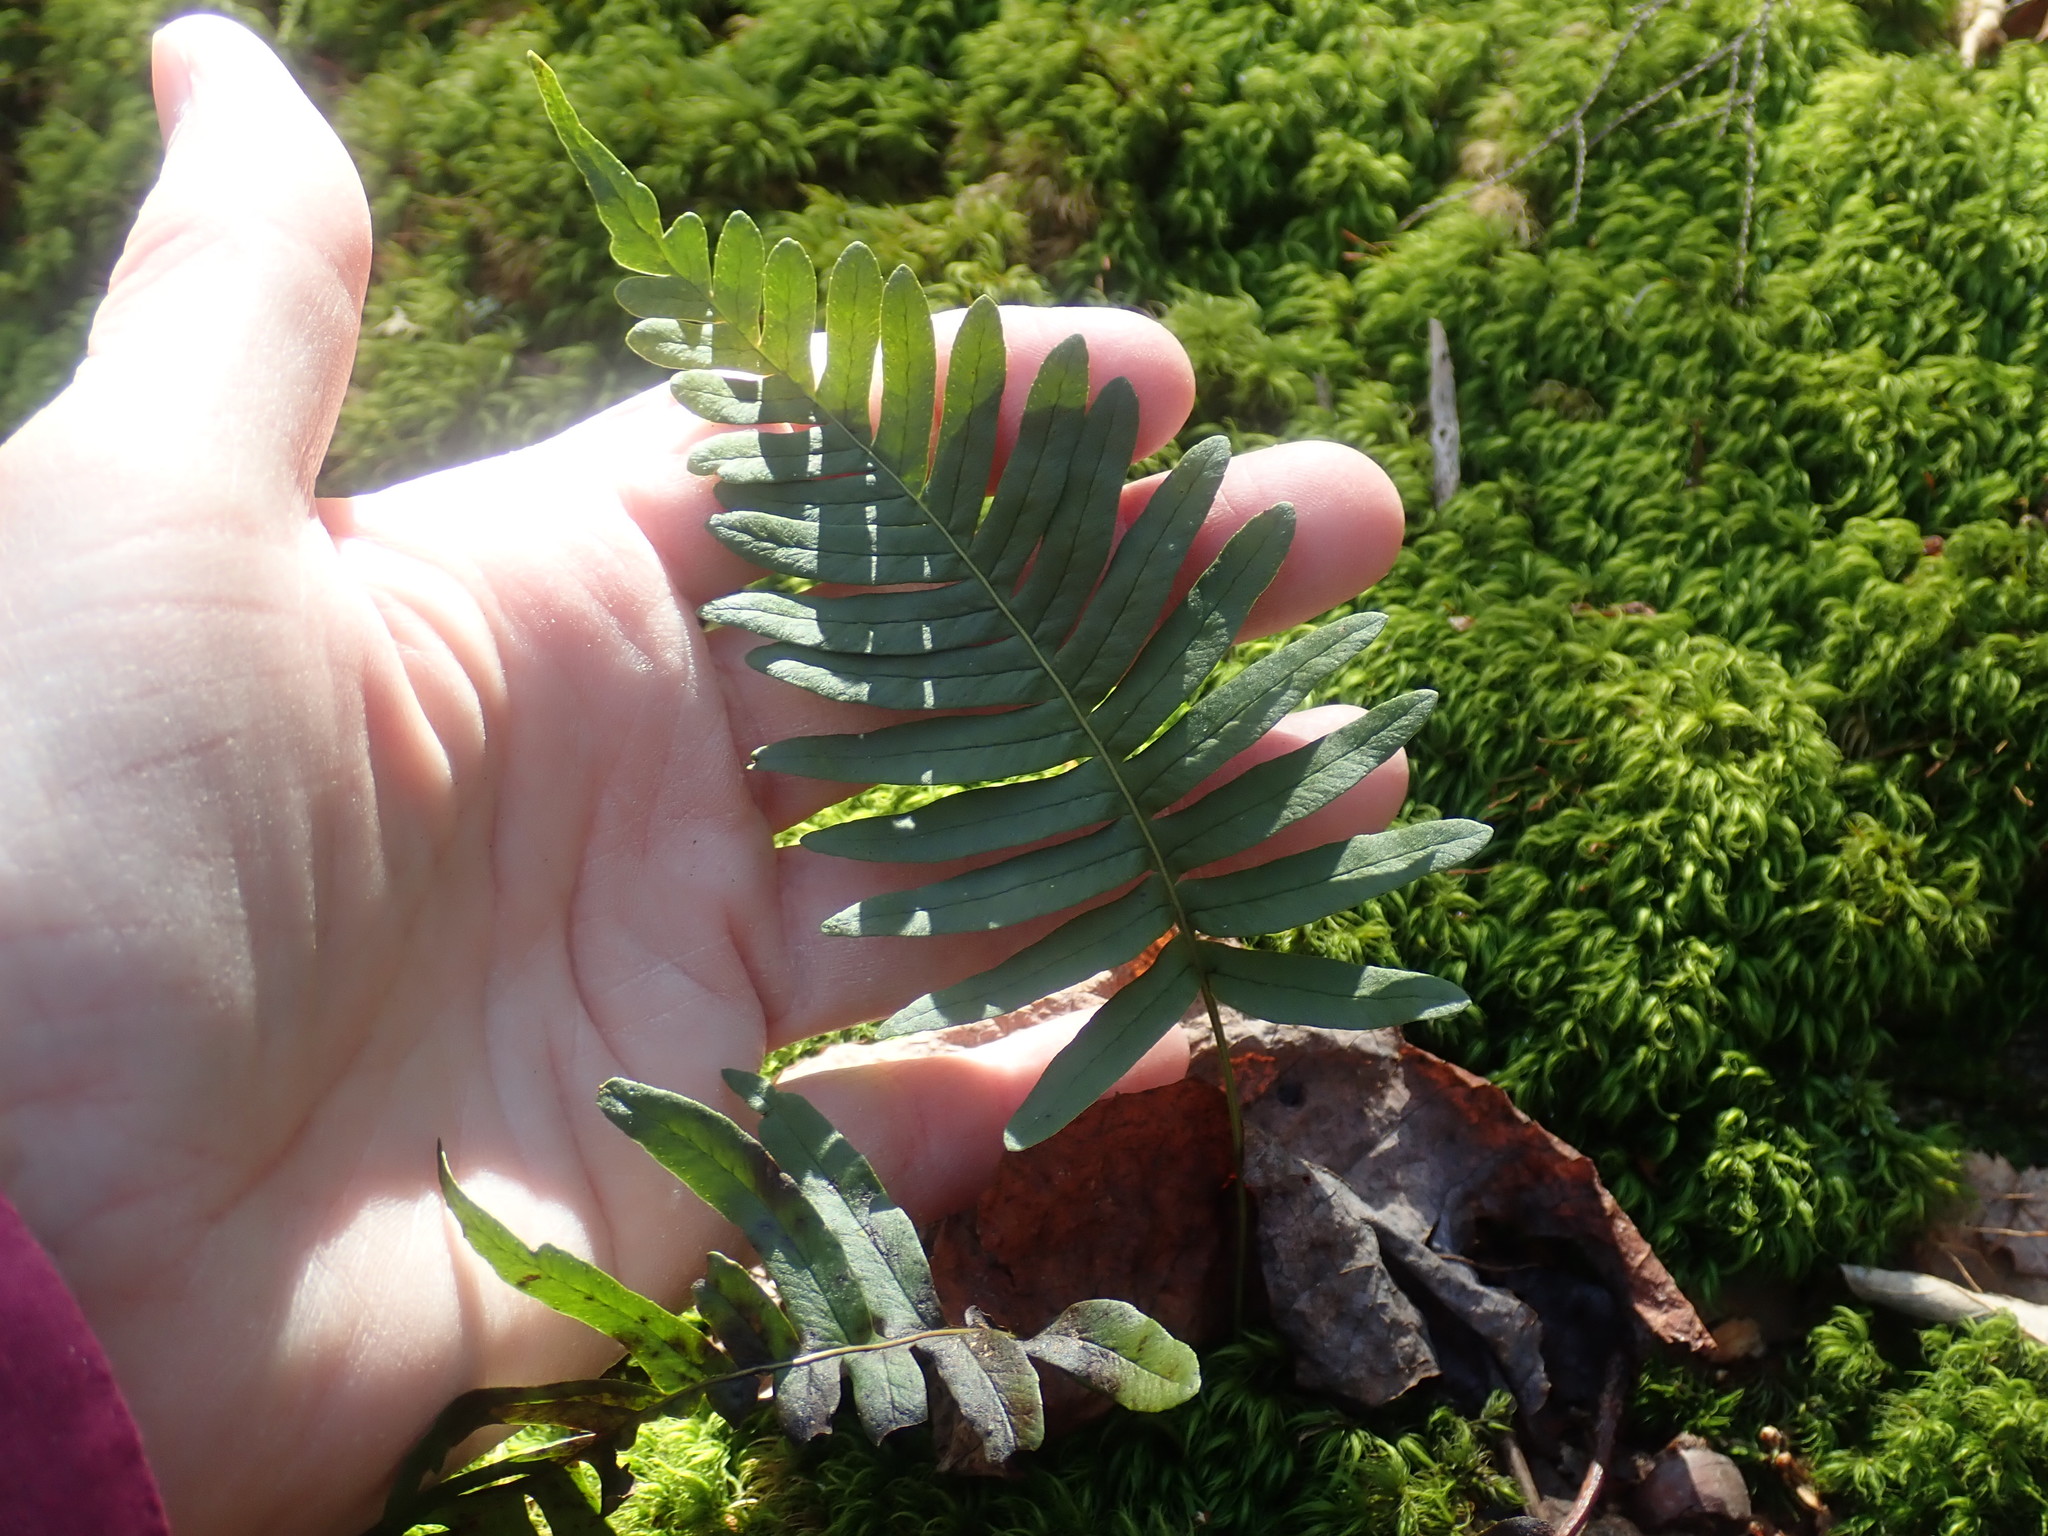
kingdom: Plantae
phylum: Tracheophyta
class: Polypodiopsida
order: Polypodiales
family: Polypodiaceae
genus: Polypodium
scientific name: Polypodium
